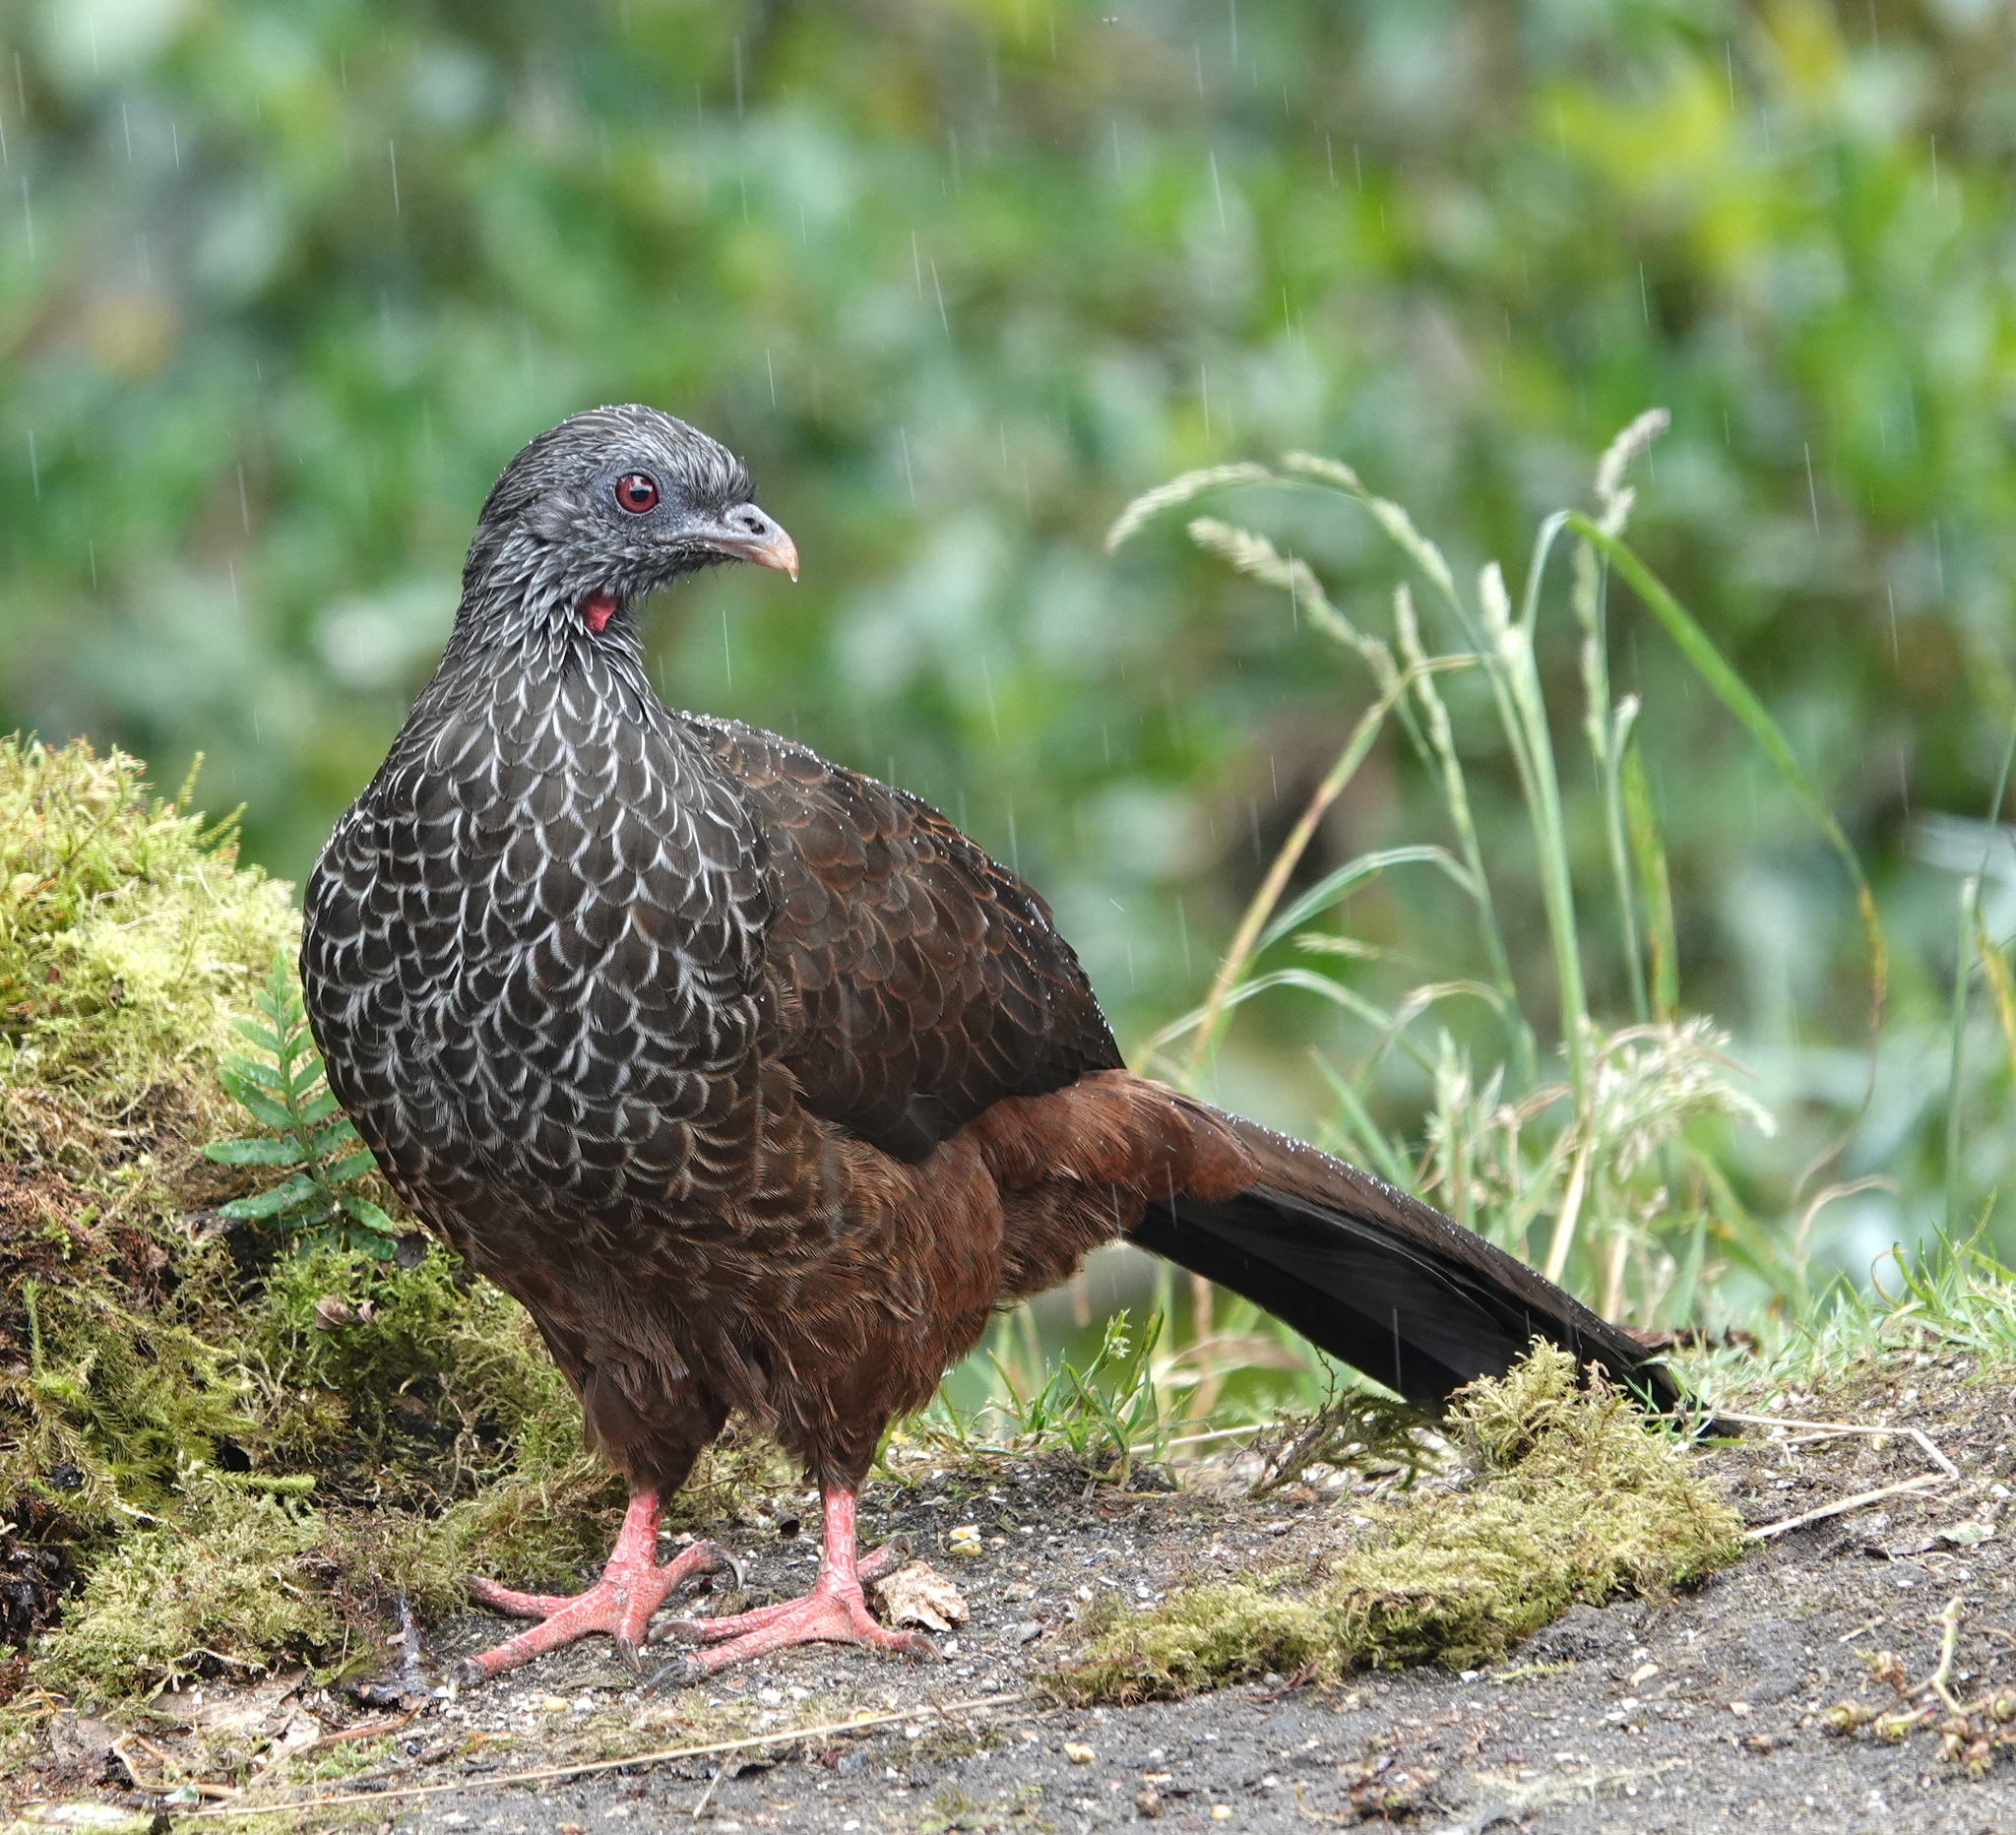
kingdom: Animalia
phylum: Chordata
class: Aves
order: Galliformes
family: Cracidae
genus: Penelope
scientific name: Penelope montagnii
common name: Andean guan
